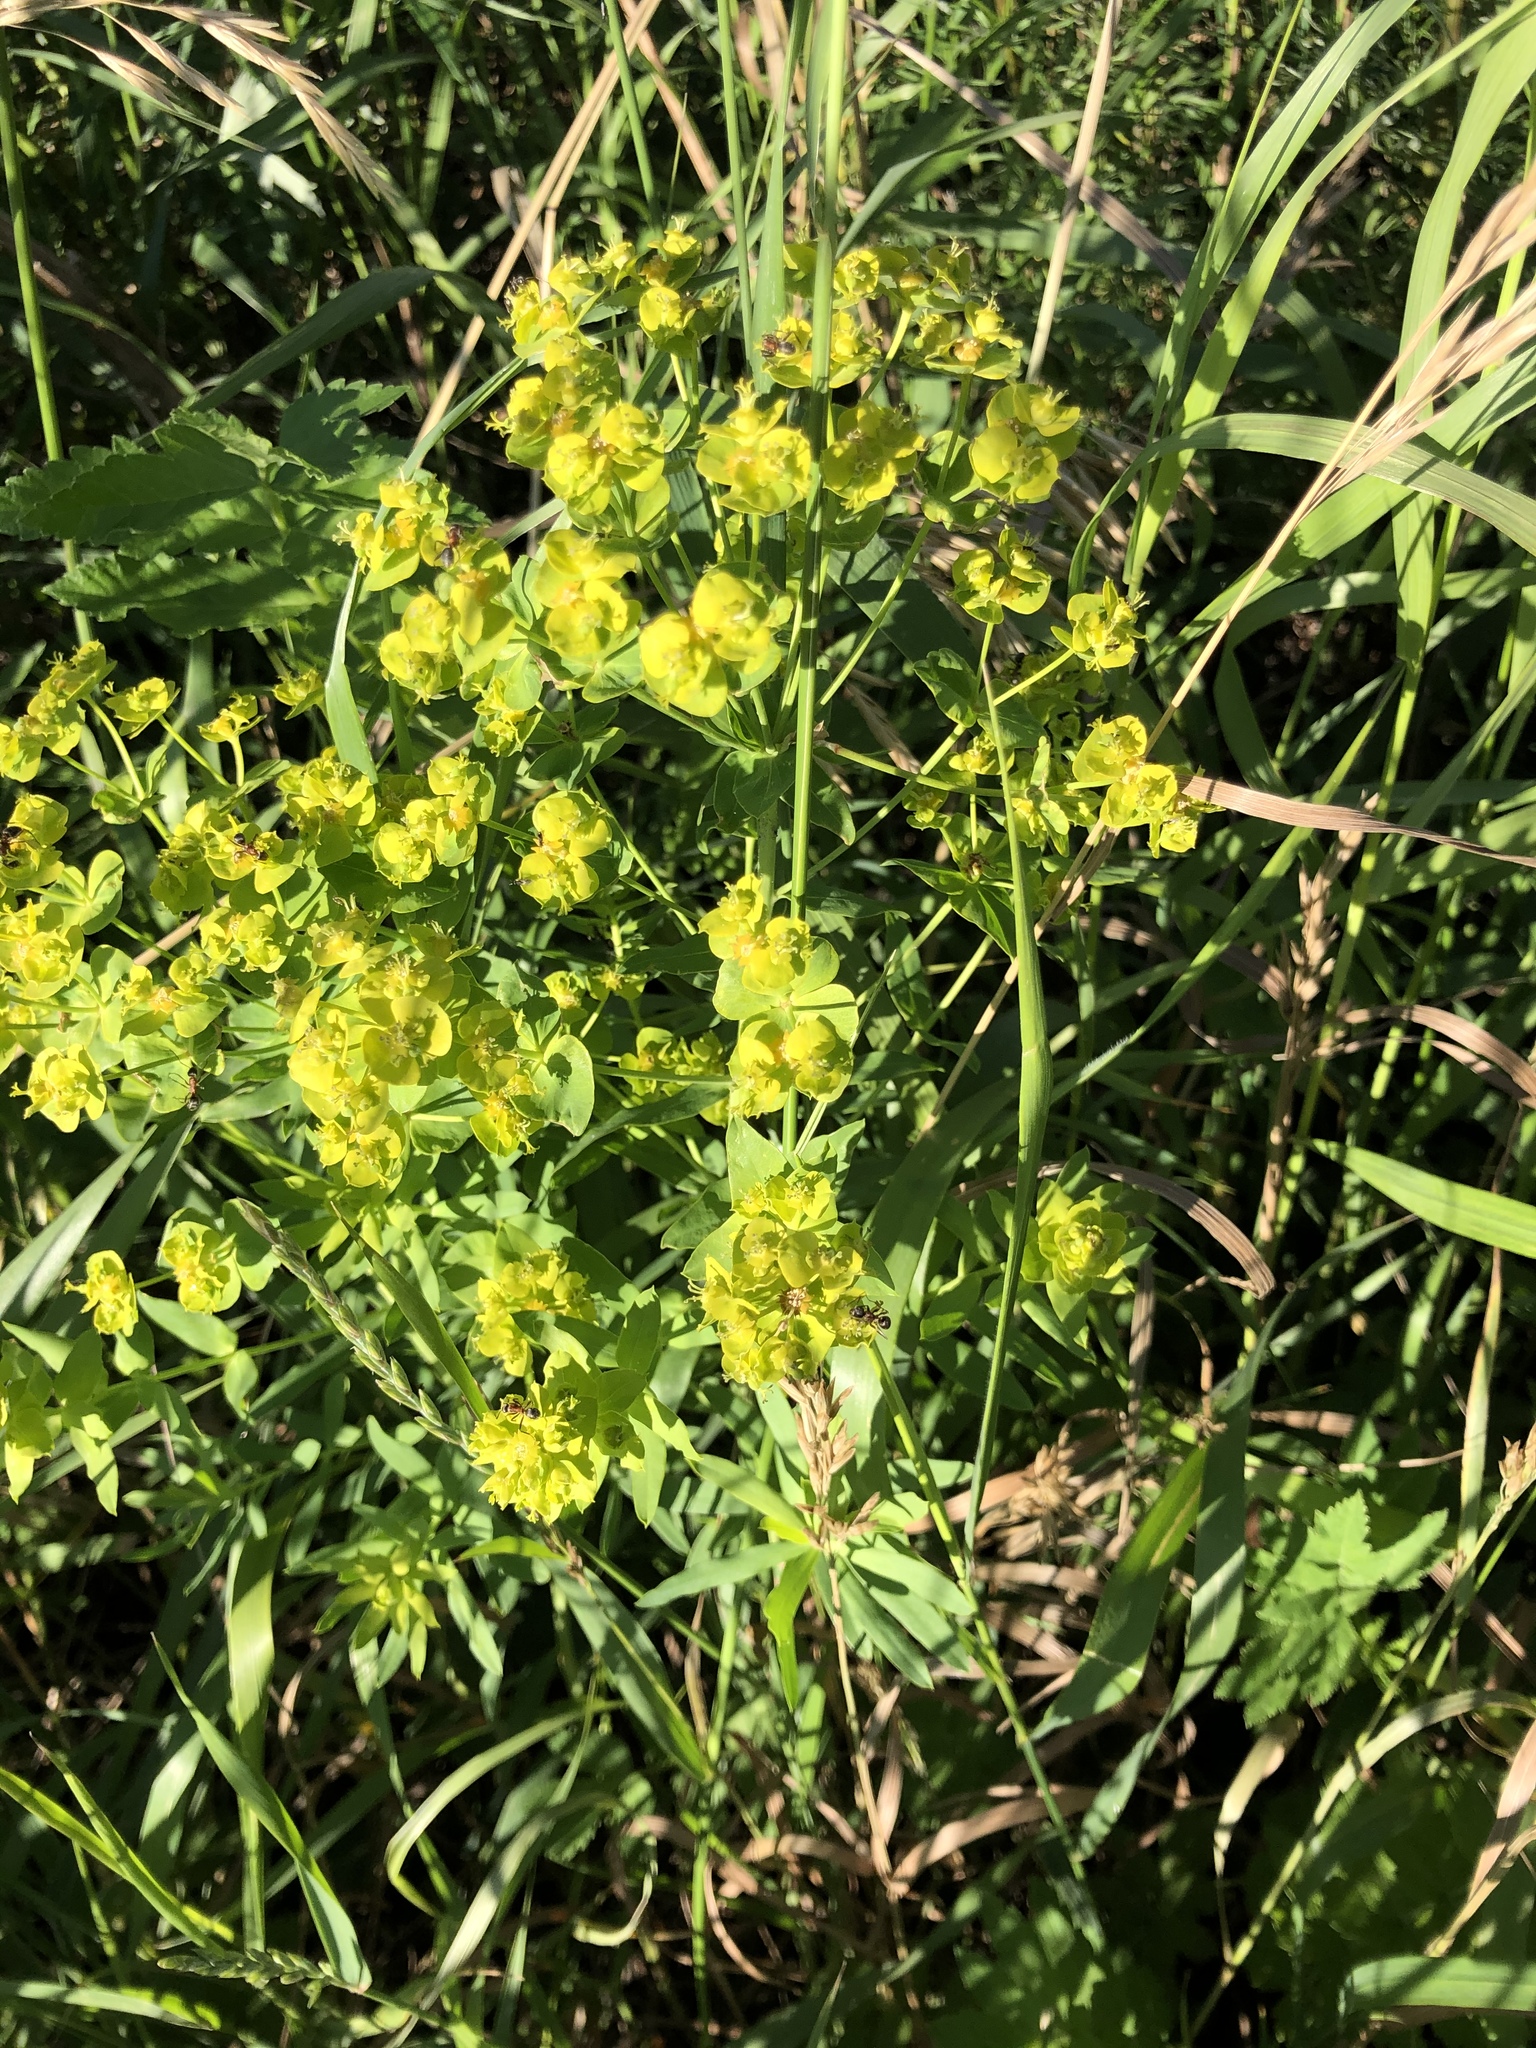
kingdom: Plantae
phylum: Tracheophyta
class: Magnoliopsida
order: Malpighiales
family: Euphorbiaceae
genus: Euphorbia
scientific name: Euphorbia virgata
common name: Leafy spurge
